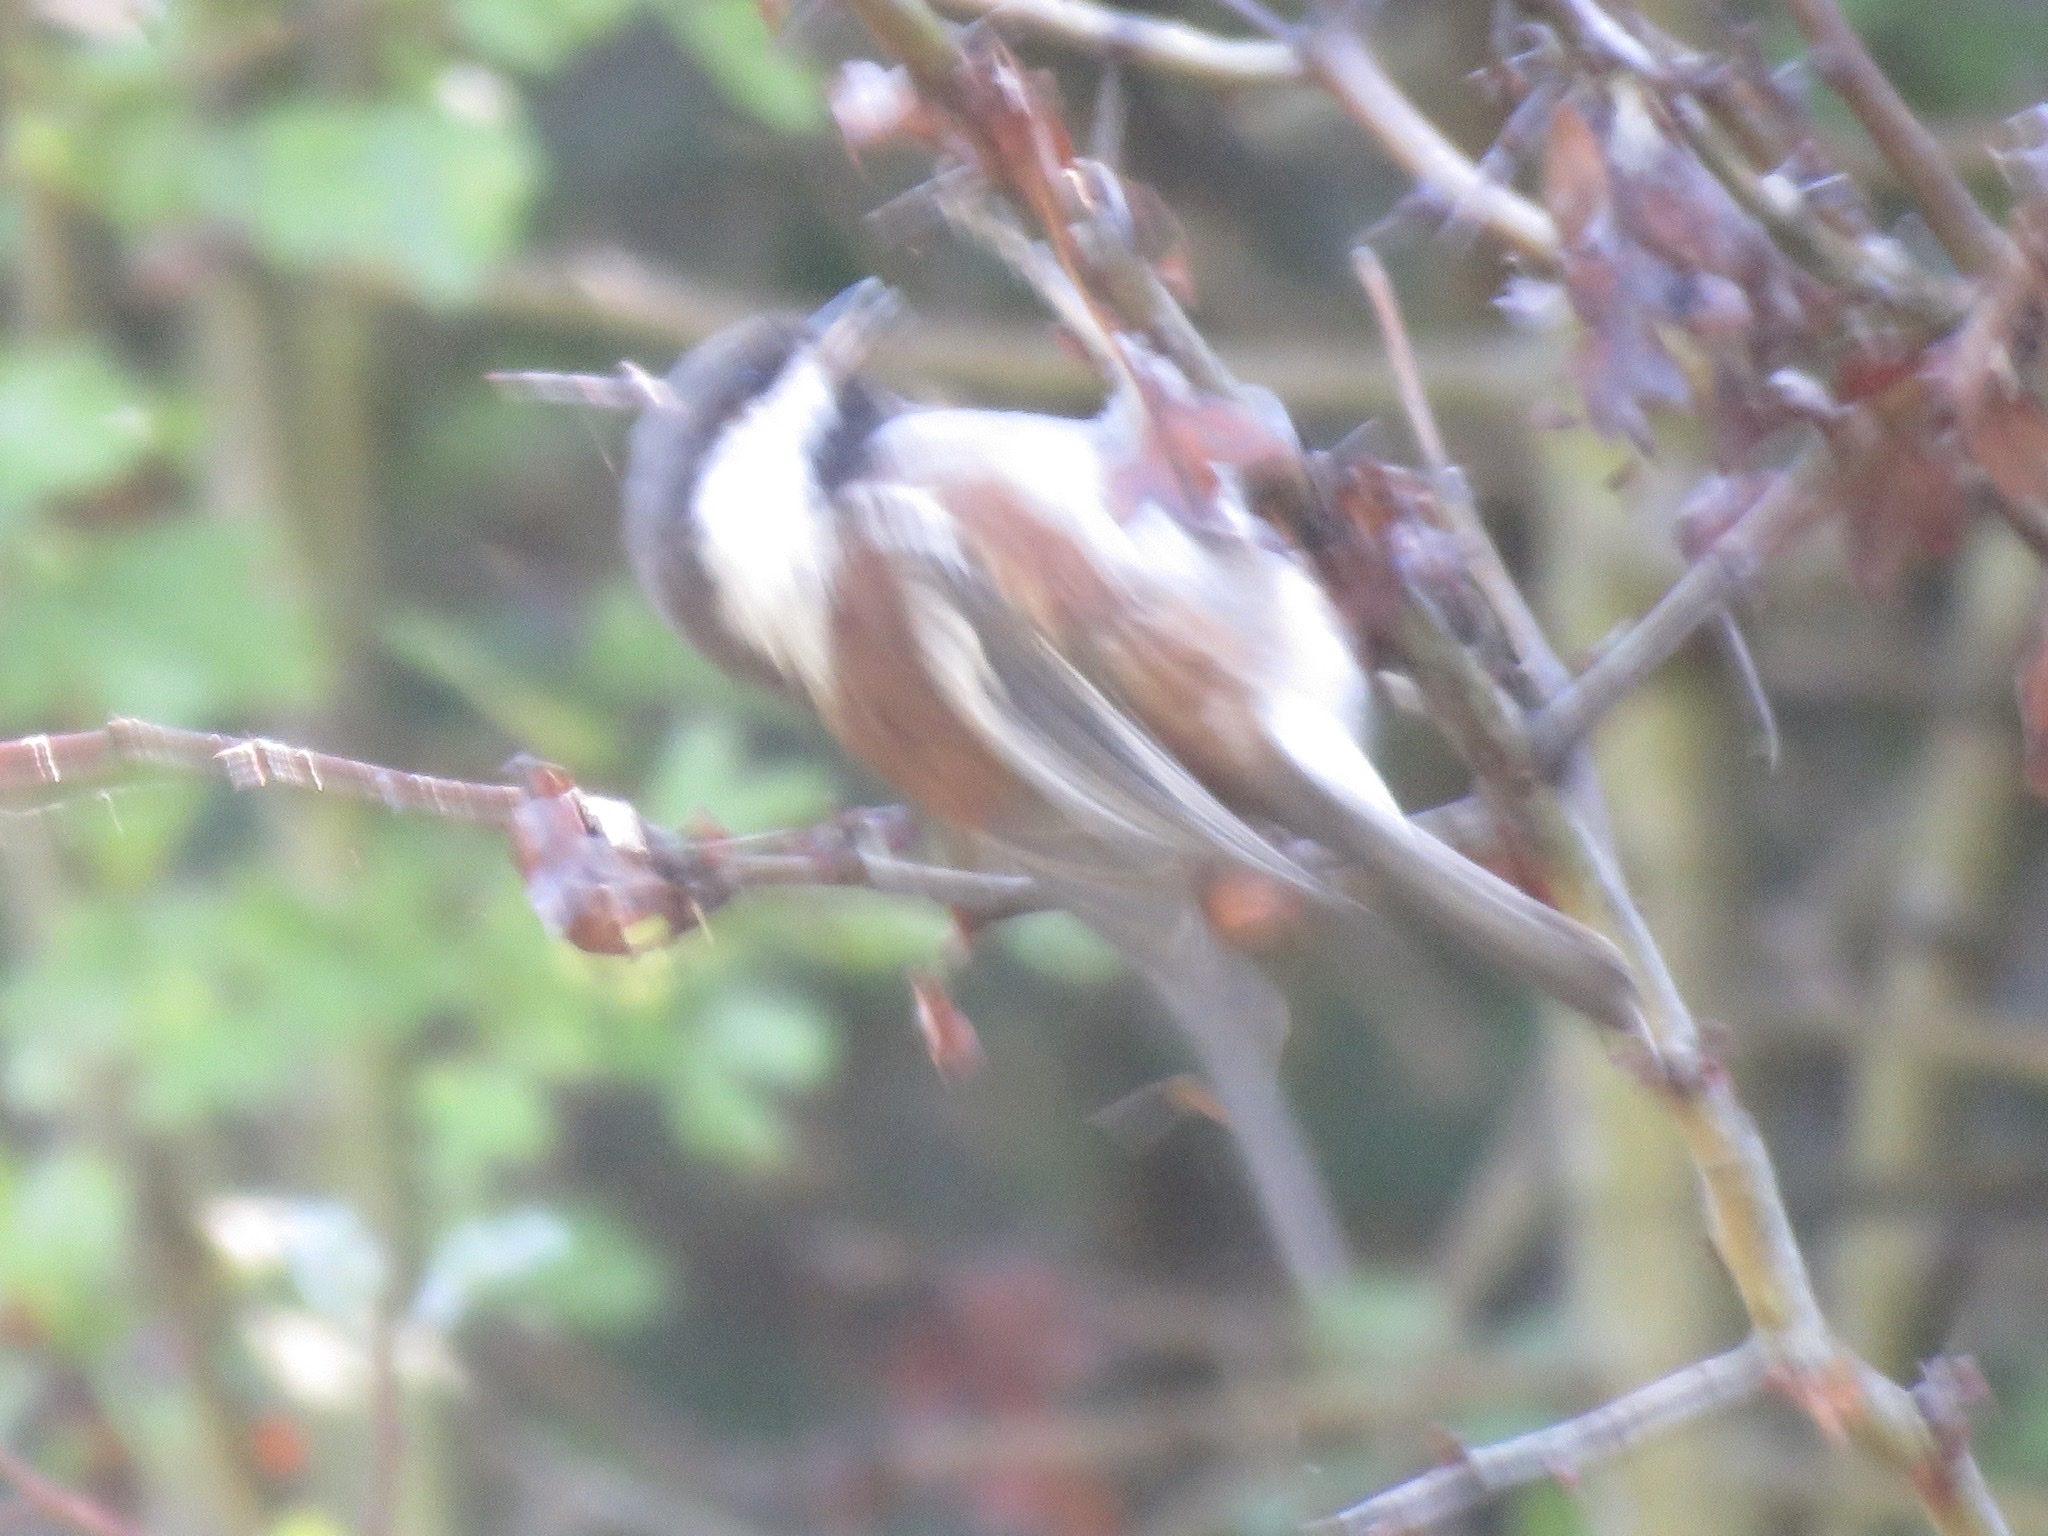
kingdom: Animalia
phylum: Chordata
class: Aves
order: Passeriformes
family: Paridae
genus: Poecile
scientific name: Poecile rufescens
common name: Chestnut-backed chickadee
